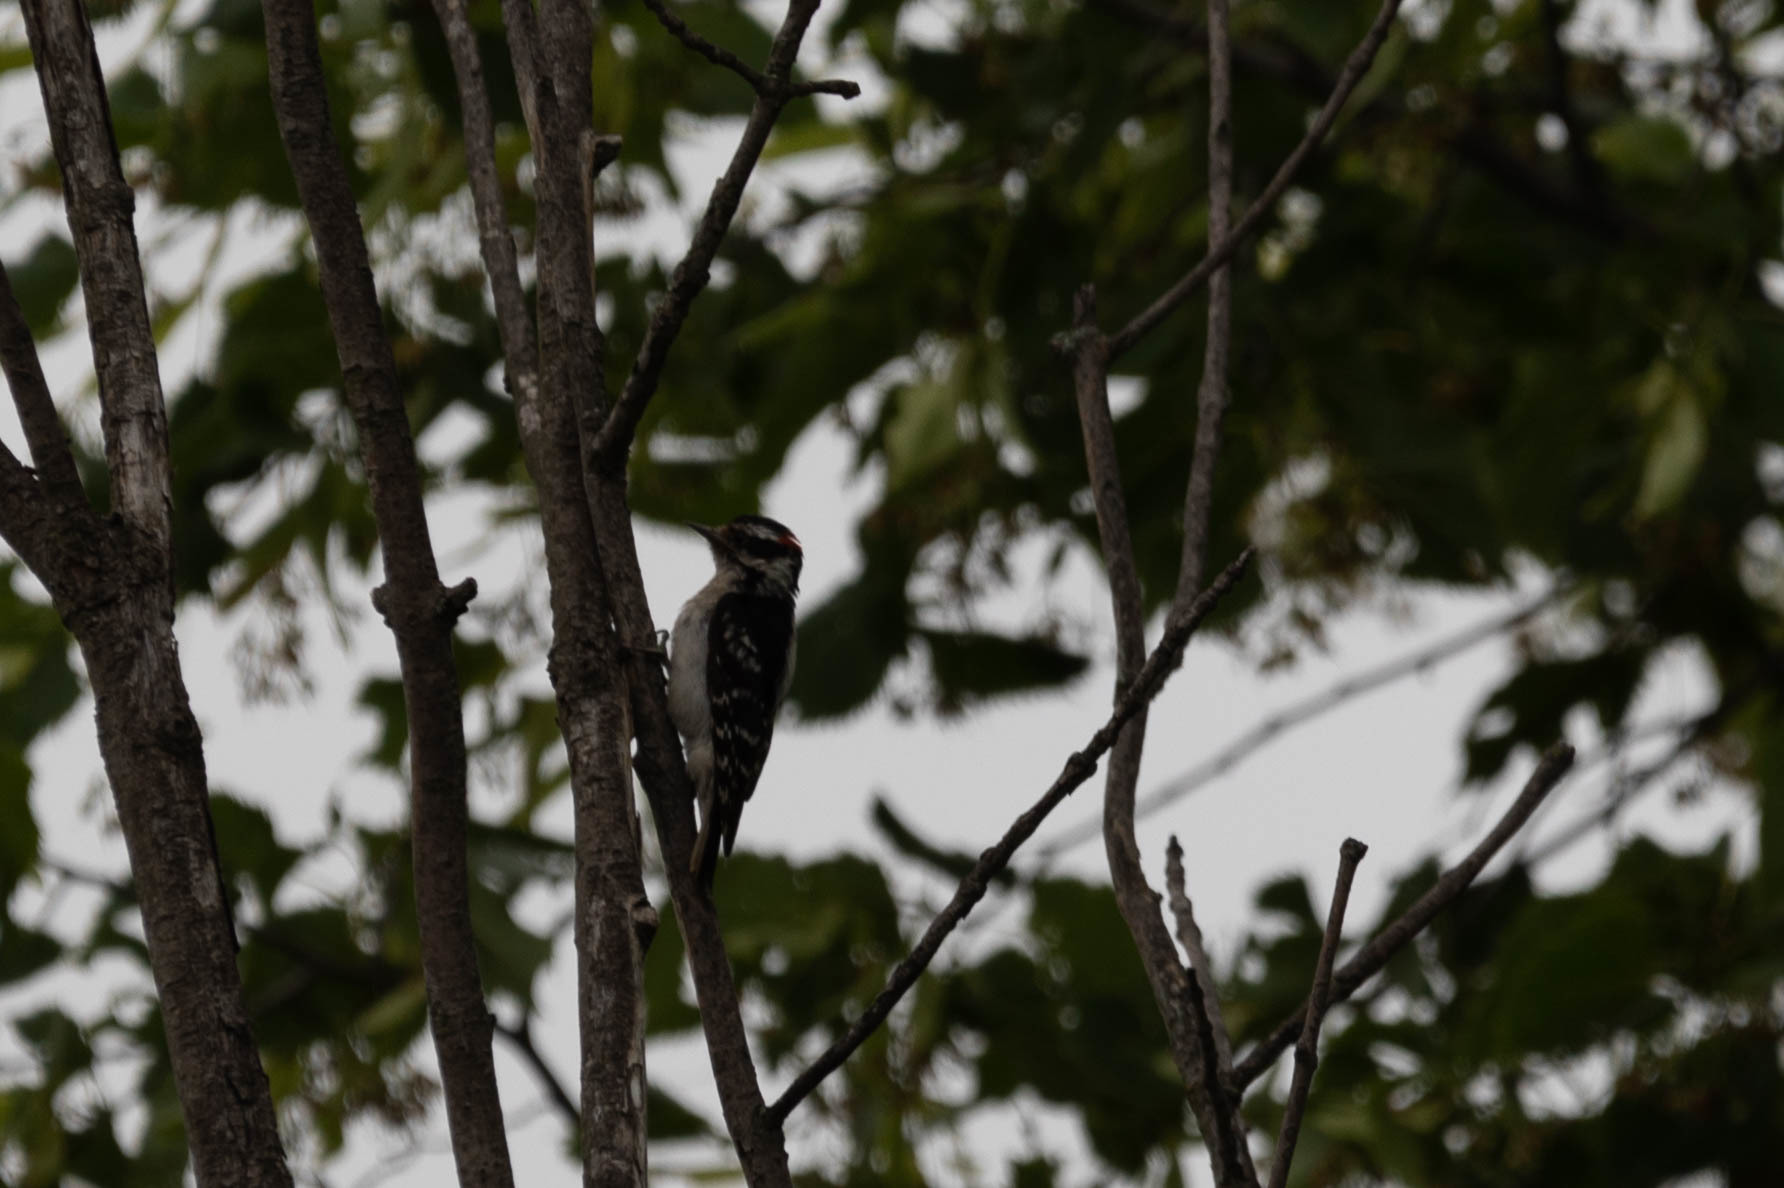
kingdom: Animalia
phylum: Chordata
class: Aves
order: Piciformes
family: Picidae
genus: Dryobates
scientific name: Dryobates pubescens
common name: Downy woodpecker
